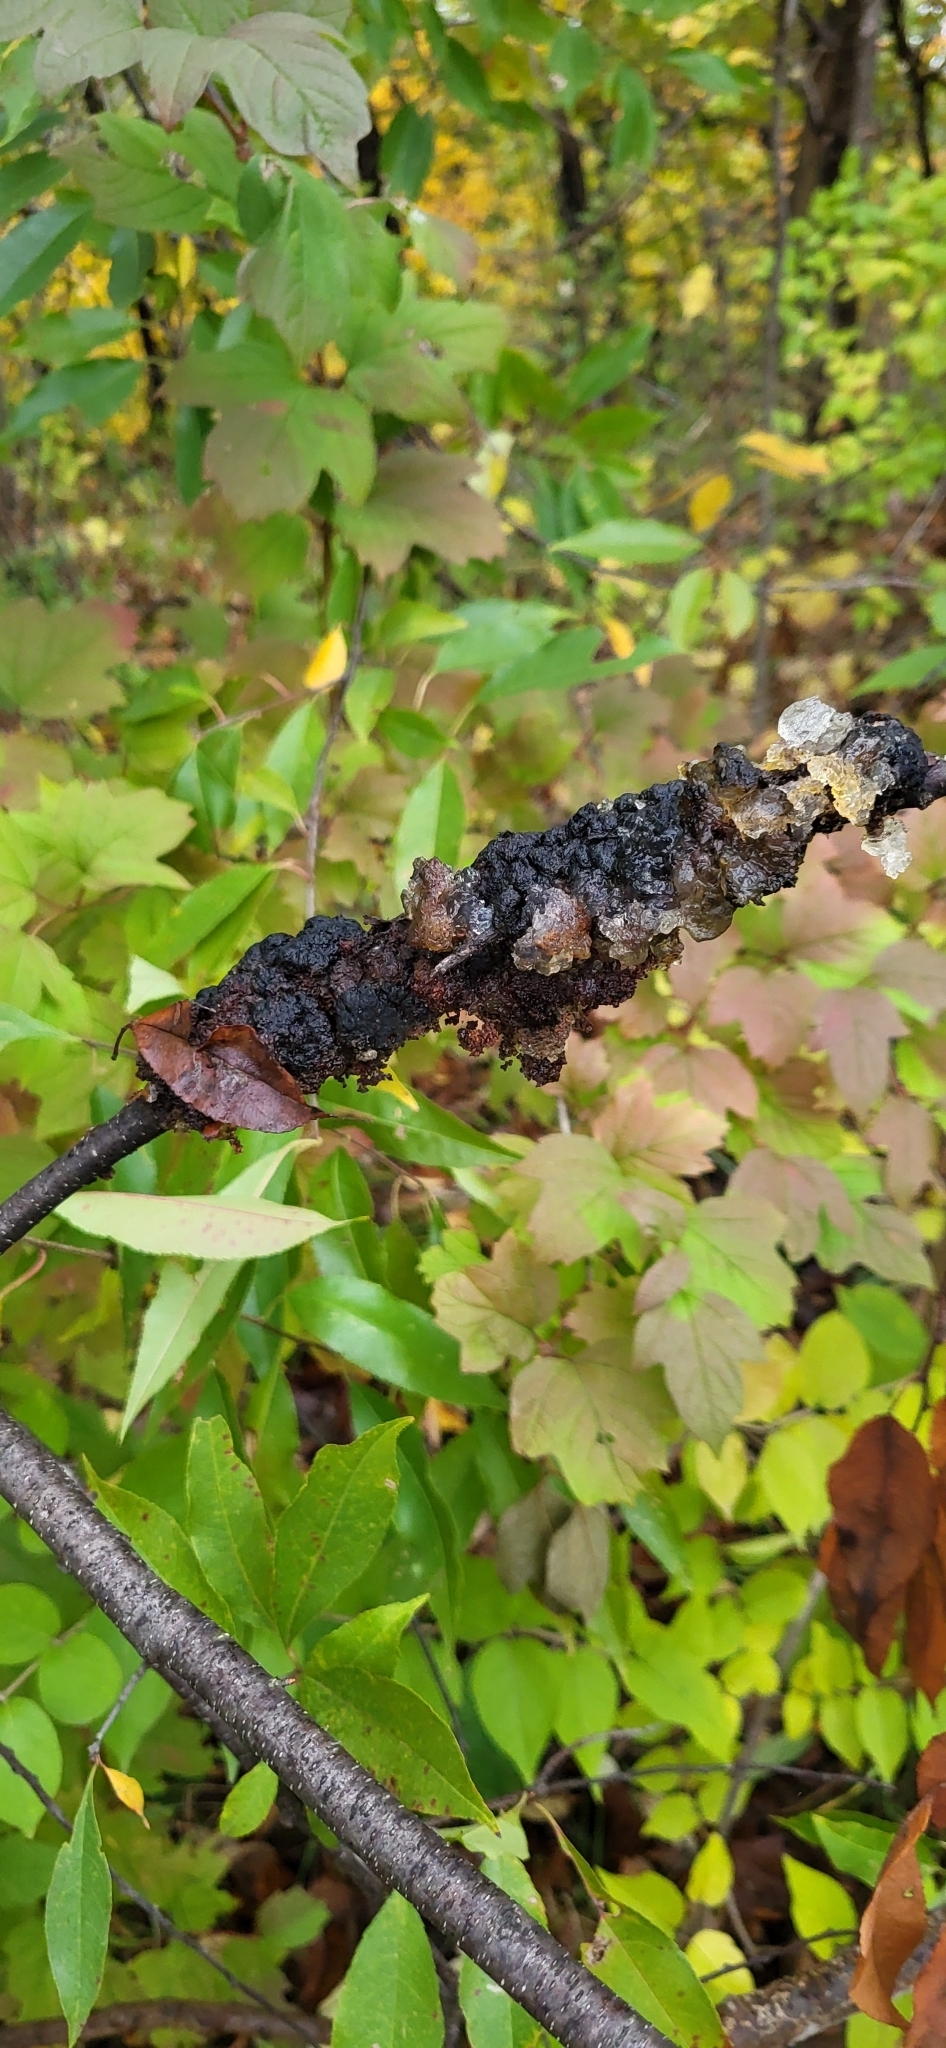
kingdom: Fungi
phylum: Ascomycota
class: Dothideomycetes
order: Venturiales
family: Venturiaceae
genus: Apiosporina
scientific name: Apiosporina morbosa
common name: Black knot
